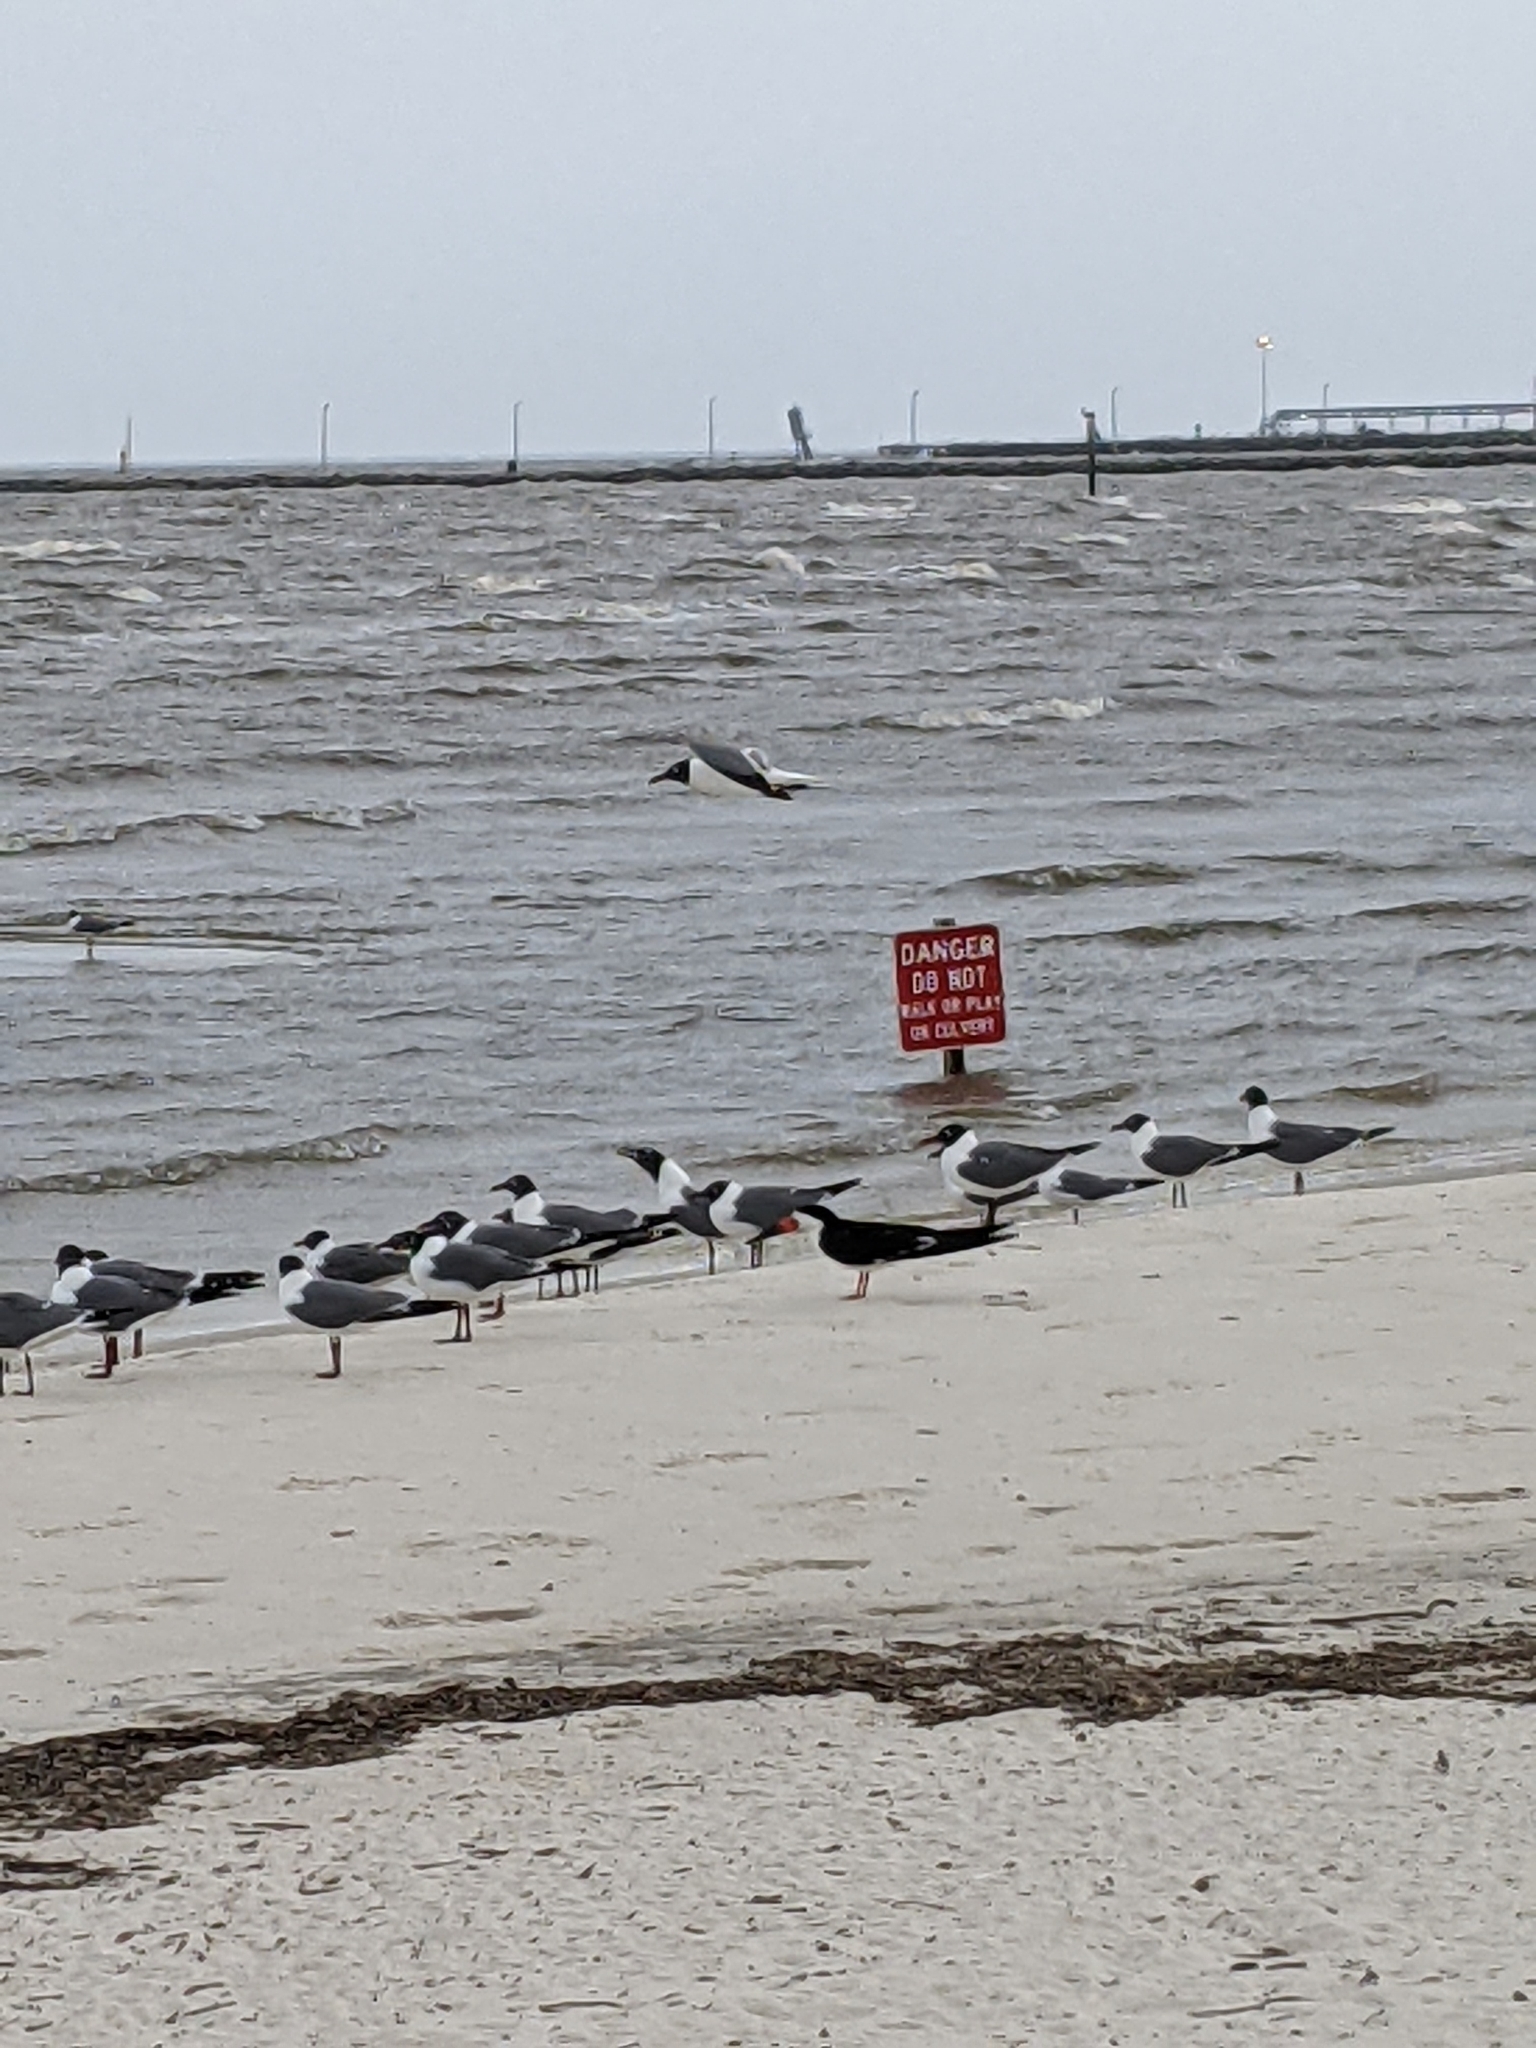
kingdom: Animalia
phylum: Chordata
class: Aves
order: Charadriiformes
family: Laridae
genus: Leucophaeus
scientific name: Leucophaeus atricilla
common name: Laughing gull
